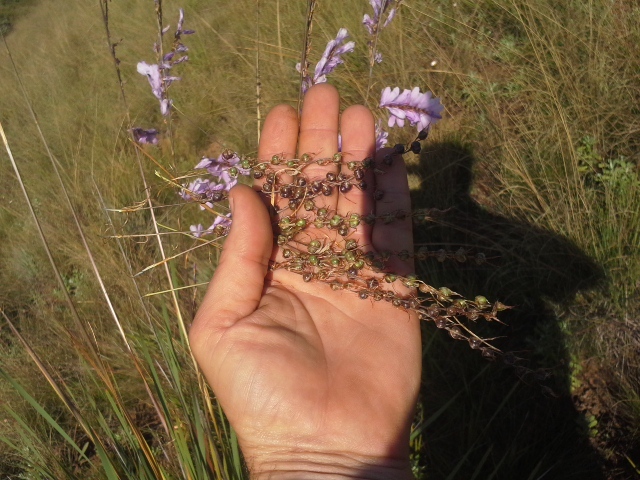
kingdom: Plantae
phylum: Tracheophyta
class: Liliopsida
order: Asparagales
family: Iridaceae
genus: Dierama
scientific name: Dierama formosum
